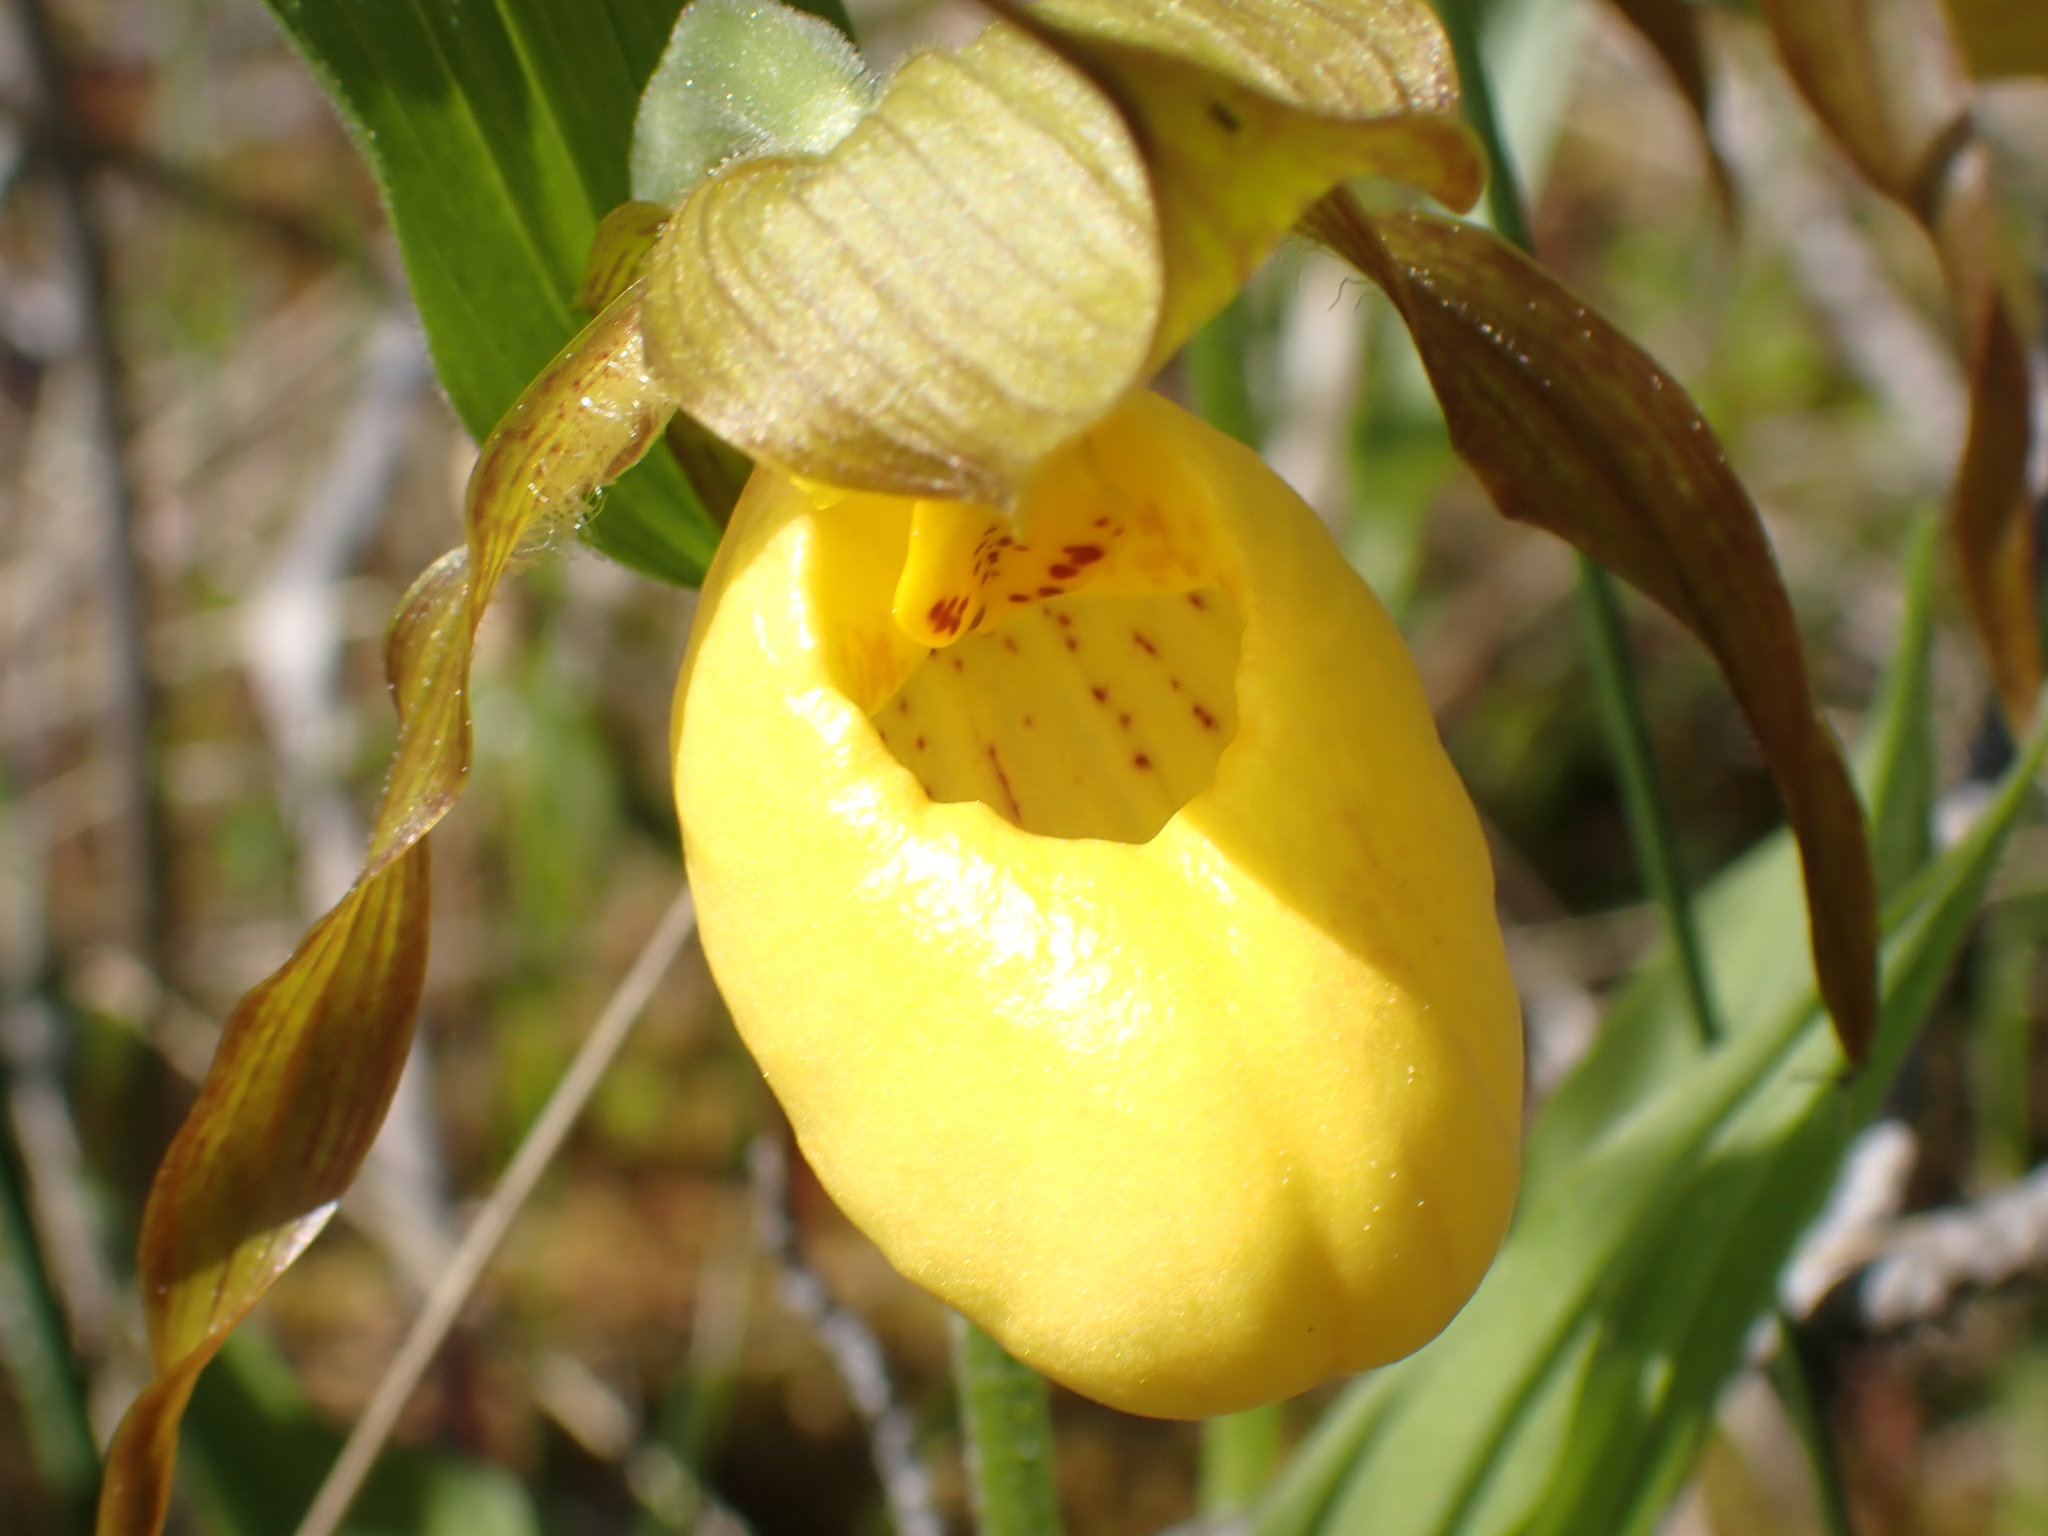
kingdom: Plantae
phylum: Tracheophyta
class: Liliopsida
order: Asparagales
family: Orchidaceae
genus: Cypripedium
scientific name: Cypripedium parviflorum
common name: American yellow lady's-slipper
